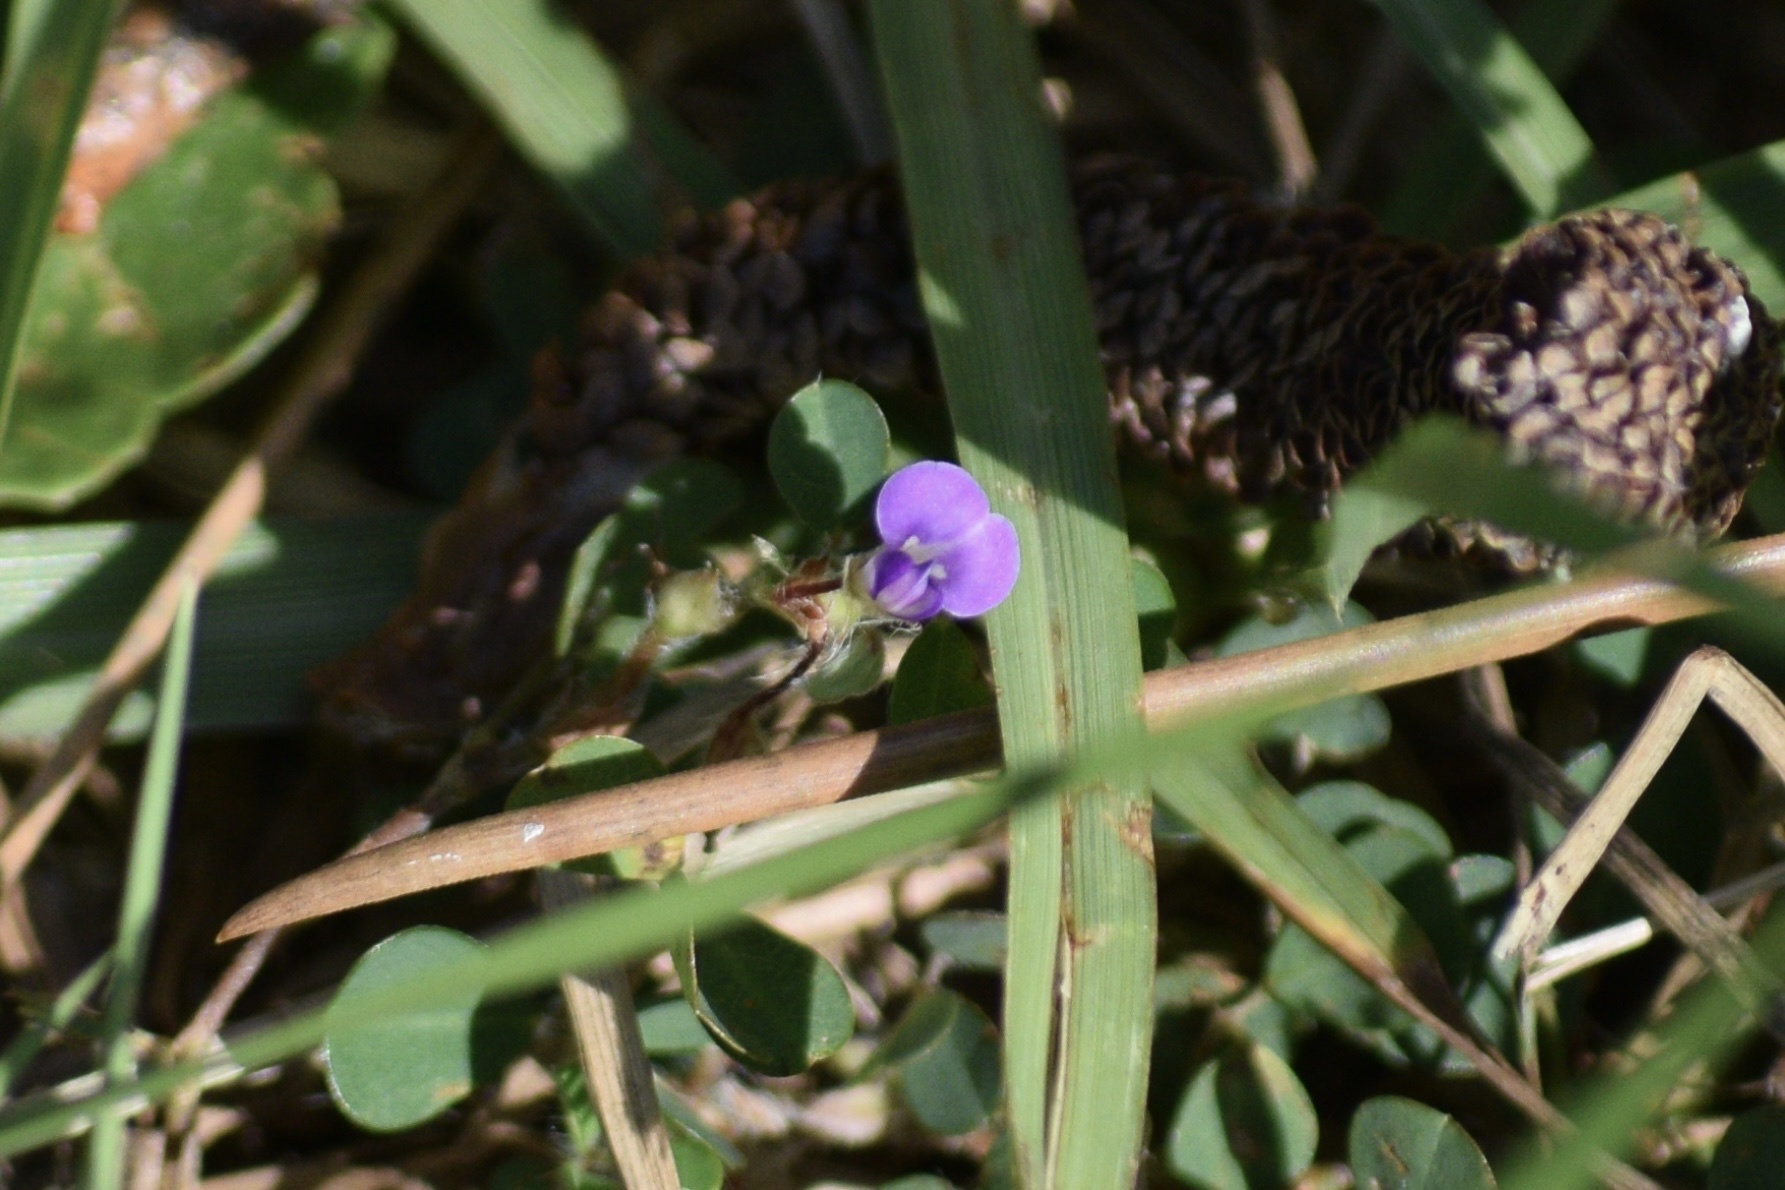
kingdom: Plantae
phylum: Tracheophyta
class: Magnoliopsida
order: Fabales
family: Fabaceae
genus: Grona
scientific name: Grona triflora
